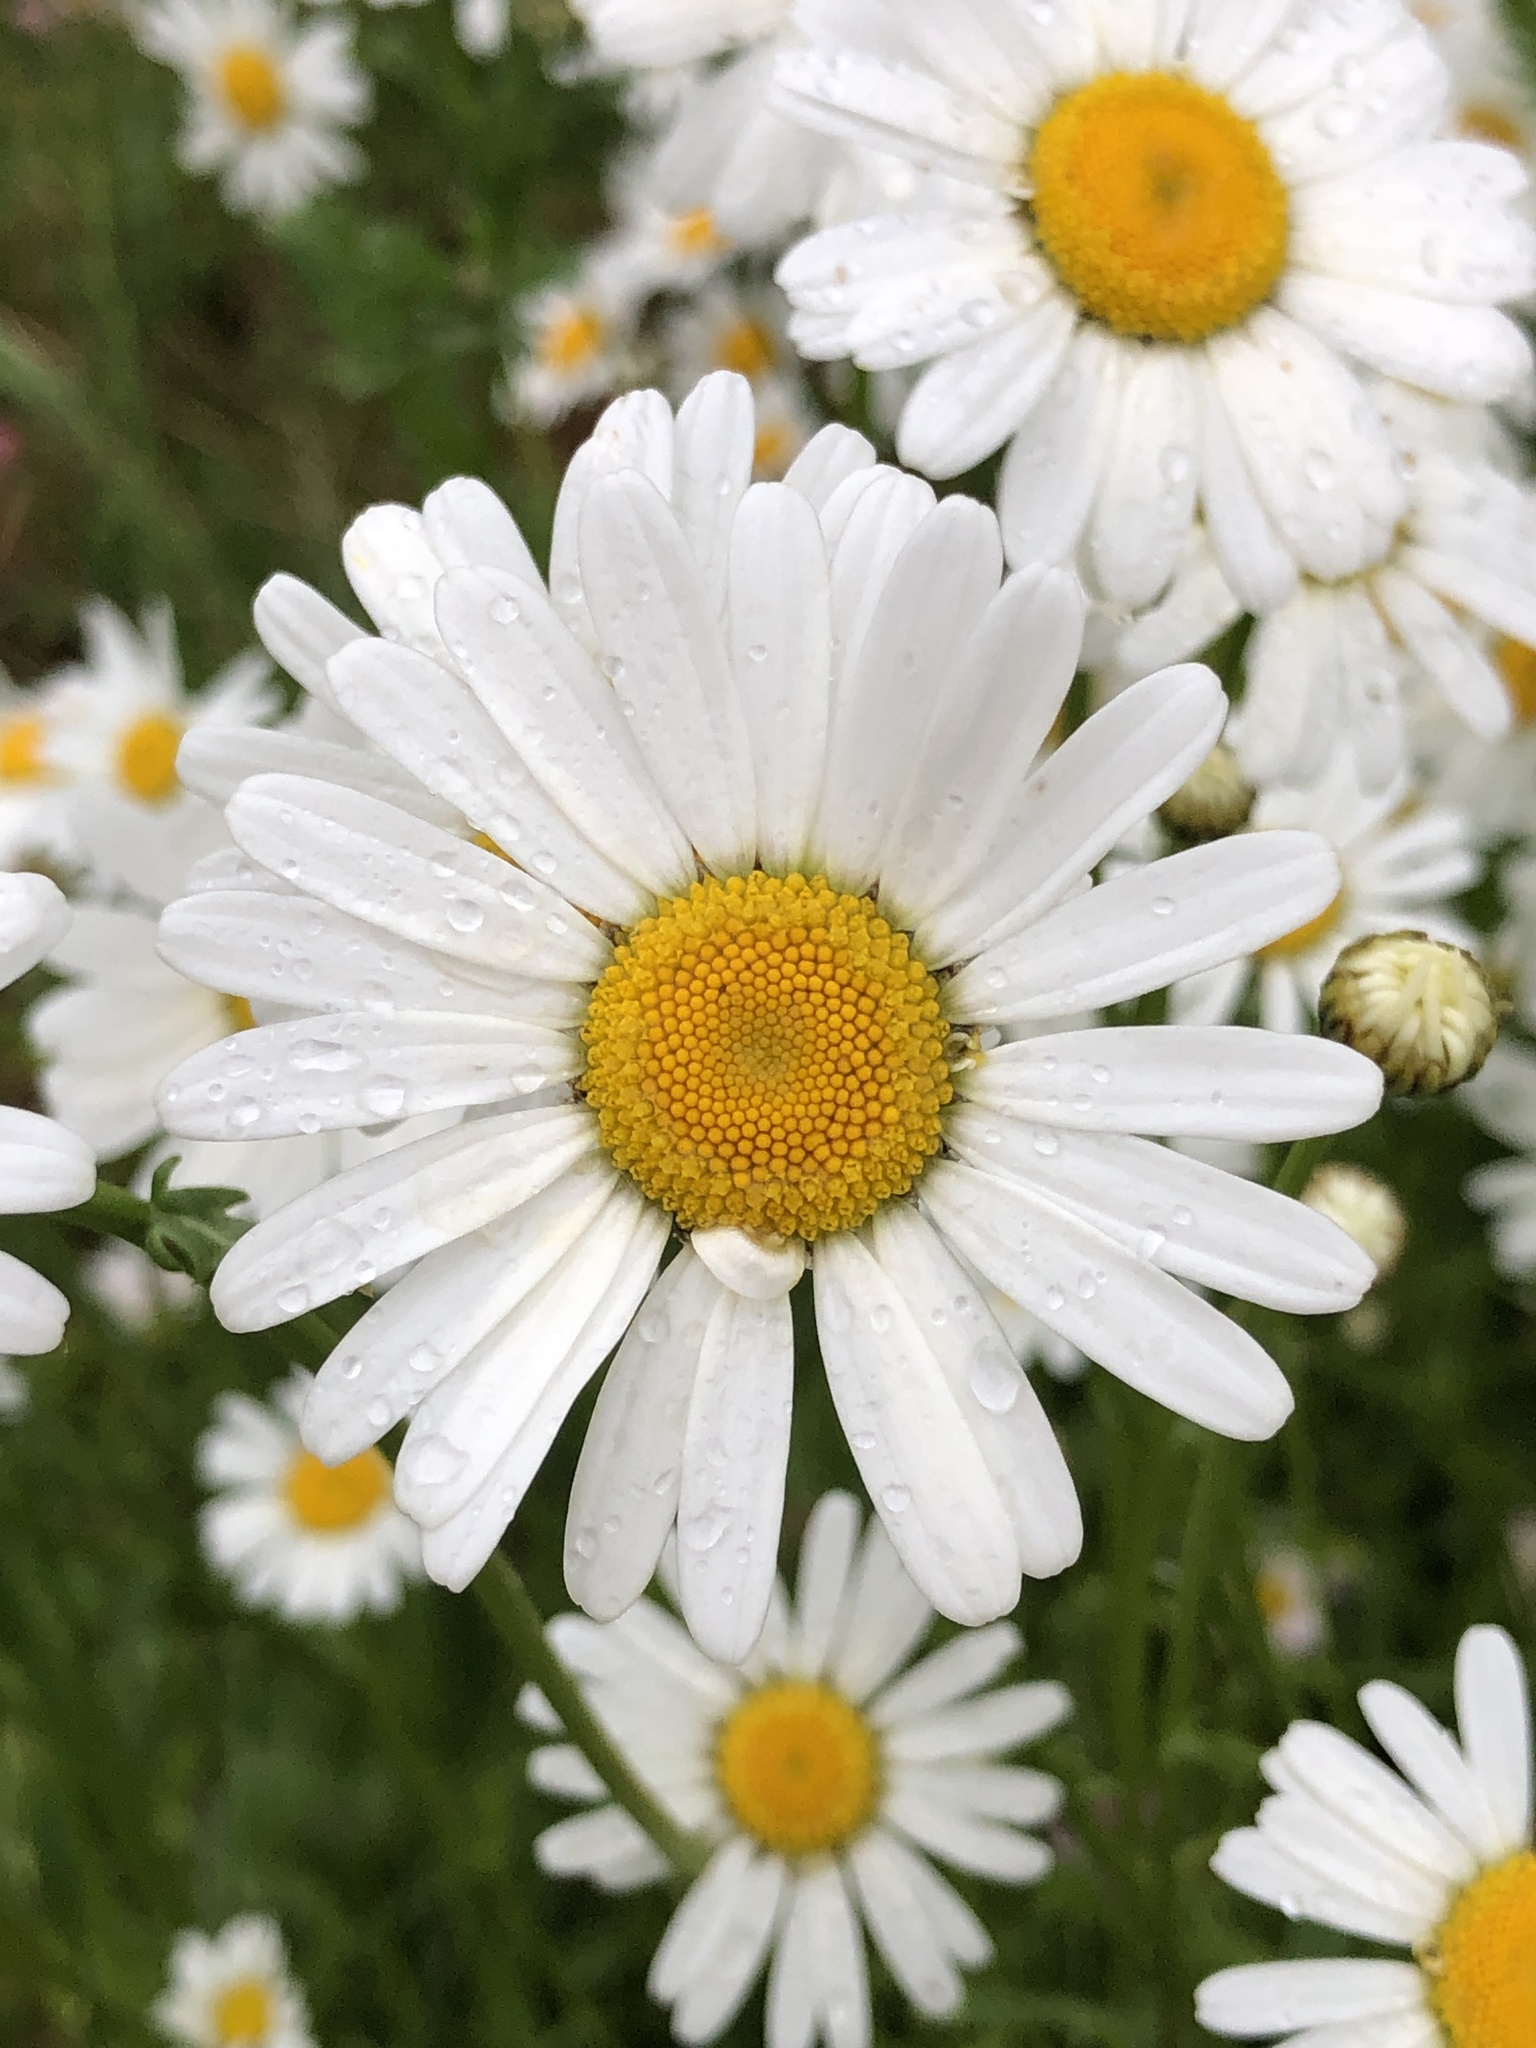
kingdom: Plantae
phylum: Tracheophyta
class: Magnoliopsida
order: Asterales
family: Asteraceae
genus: Leucanthemum
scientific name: Leucanthemum vulgare
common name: Oxeye daisy
